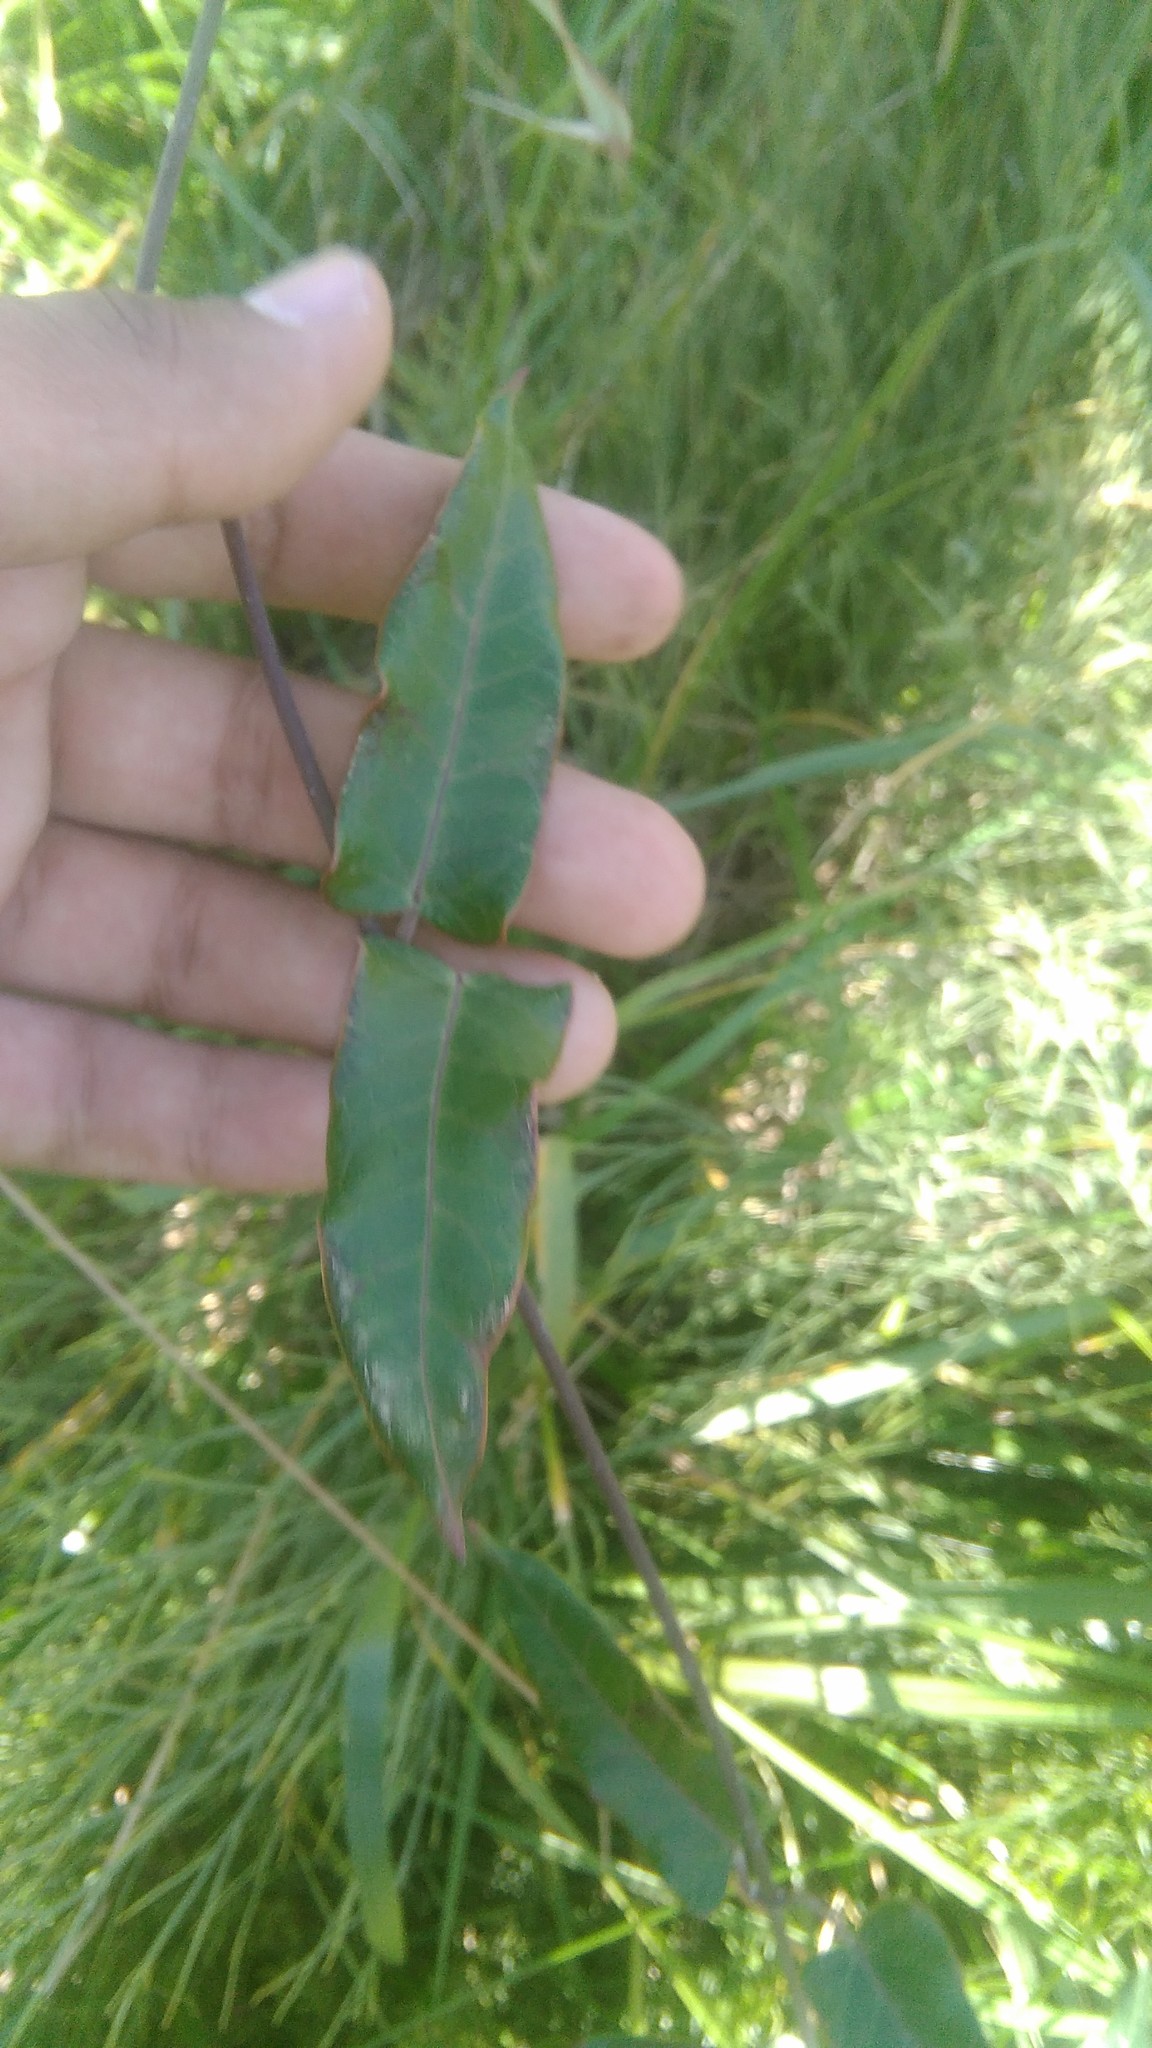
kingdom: Plantae
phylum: Tracheophyta
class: Magnoliopsida
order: Gentianales
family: Apocynaceae
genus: Araujia
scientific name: Araujia sericifera
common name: White bladderflower
